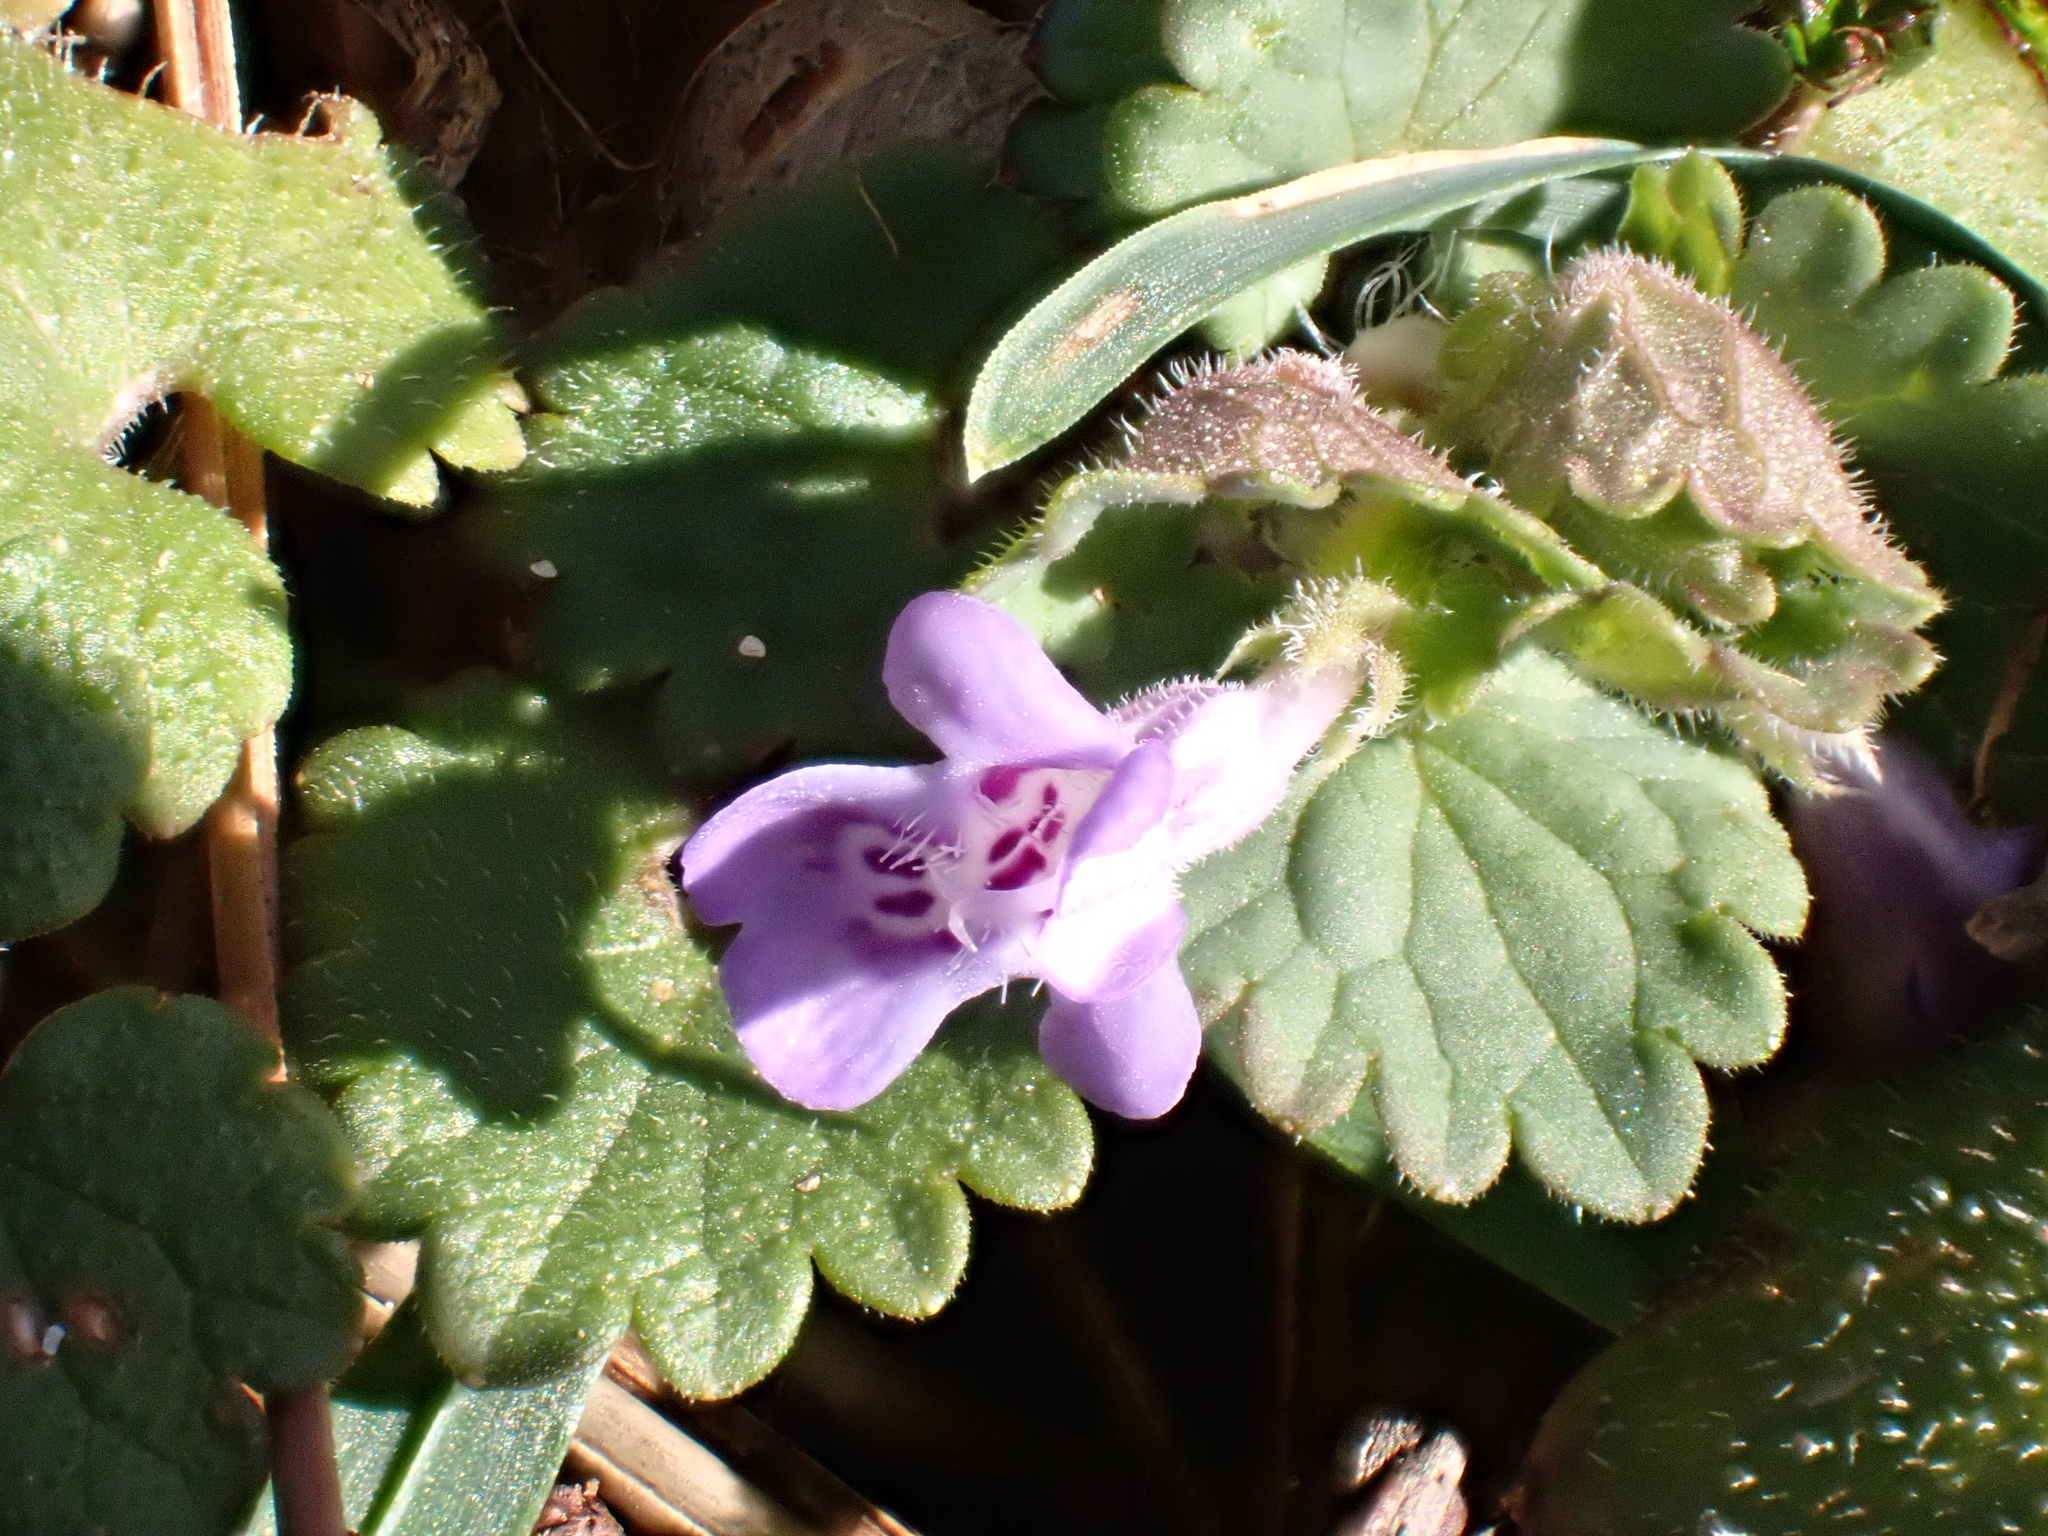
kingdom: Plantae
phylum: Tracheophyta
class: Magnoliopsida
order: Lamiales
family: Lamiaceae
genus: Glechoma
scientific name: Glechoma hederacea
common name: Ground ivy
